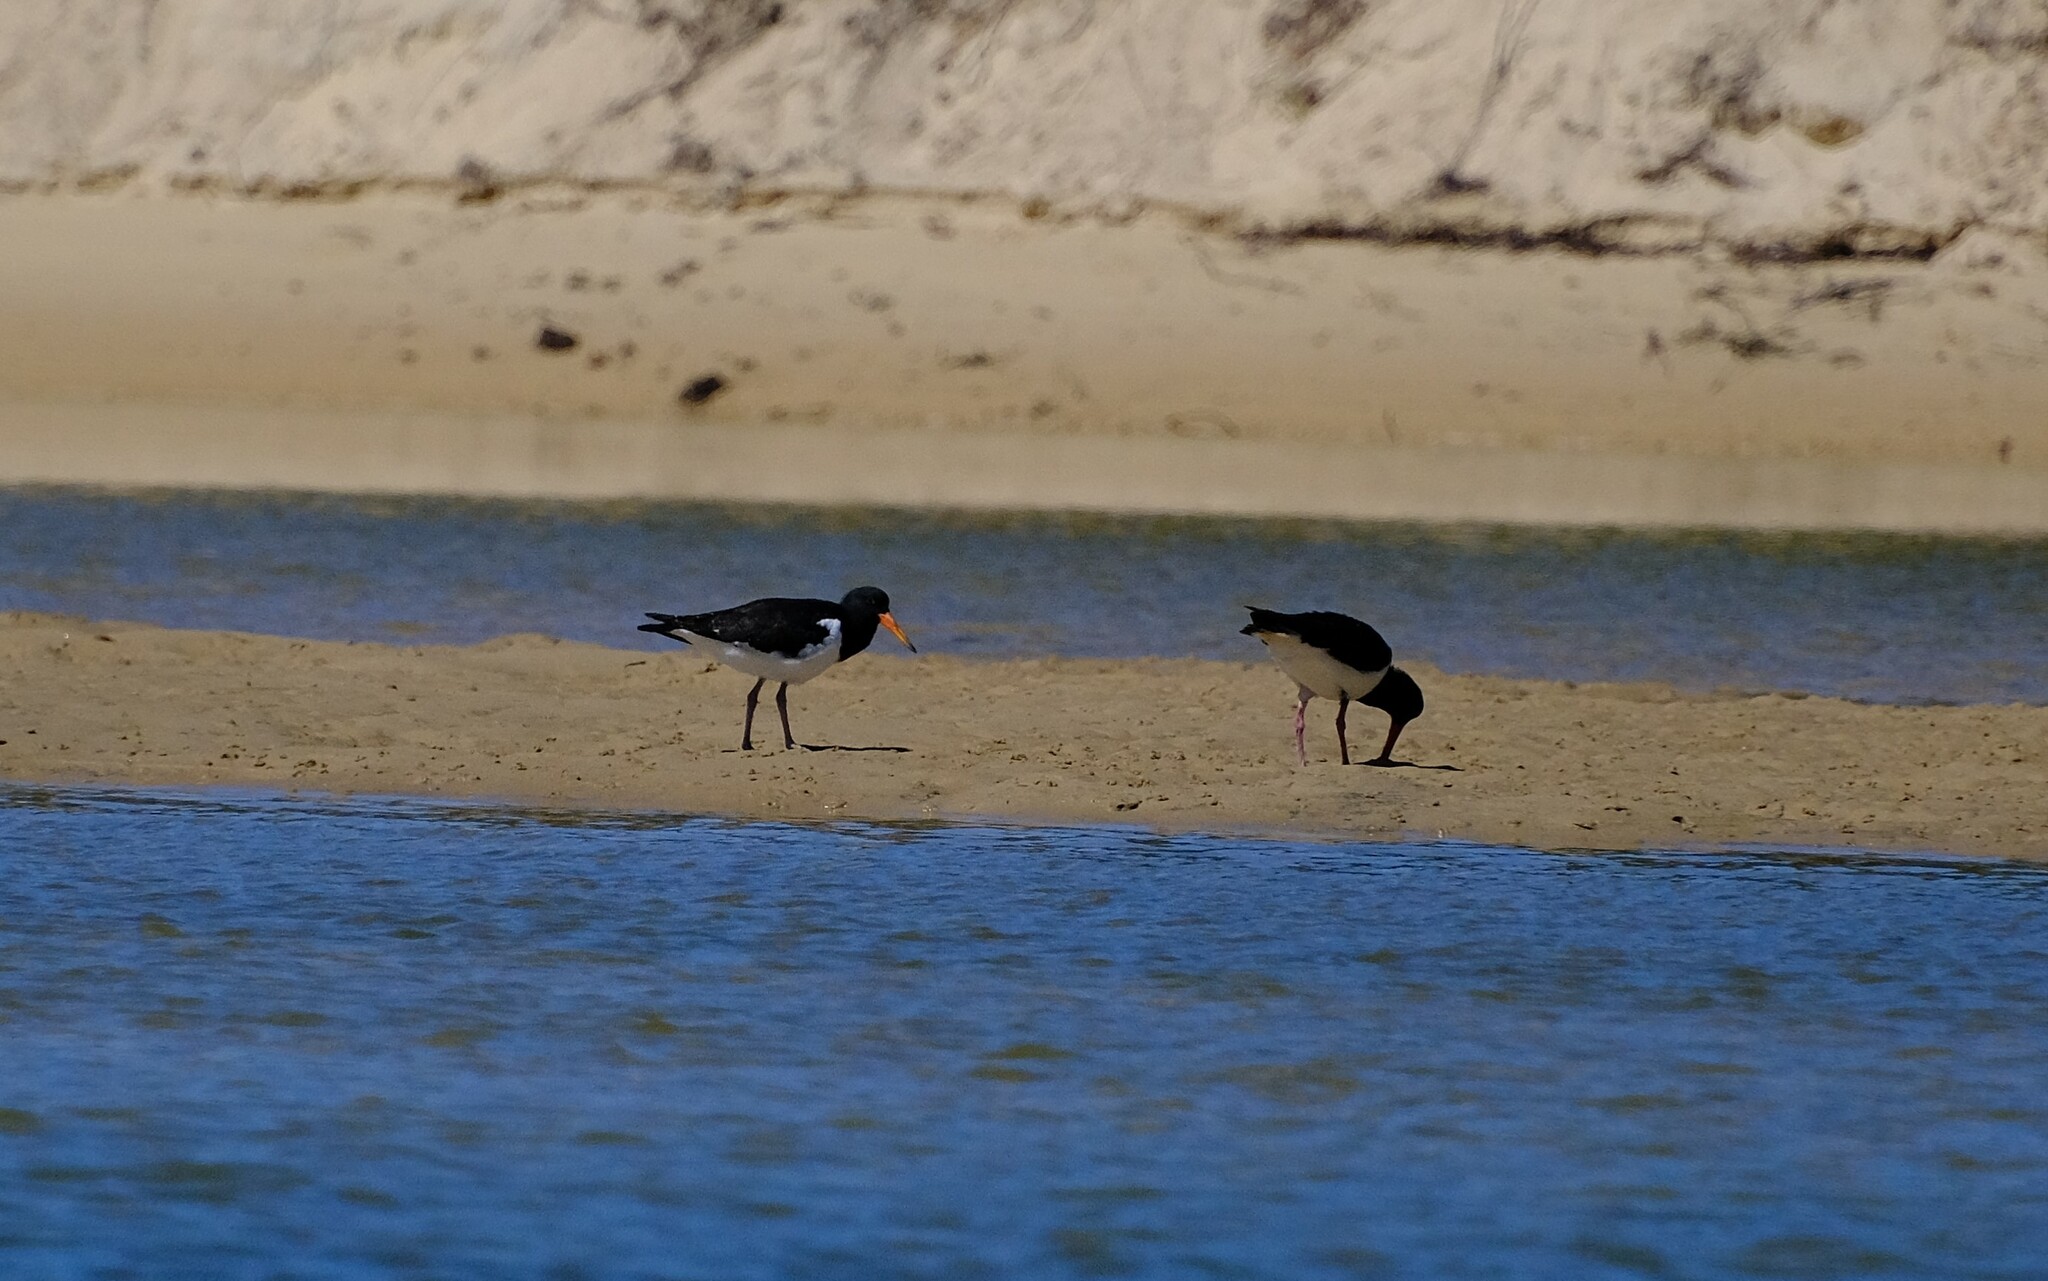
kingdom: Animalia
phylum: Chordata
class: Aves
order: Charadriiformes
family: Haematopodidae
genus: Haematopus
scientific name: Haematopus longirostris
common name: Pied oystercatcher
